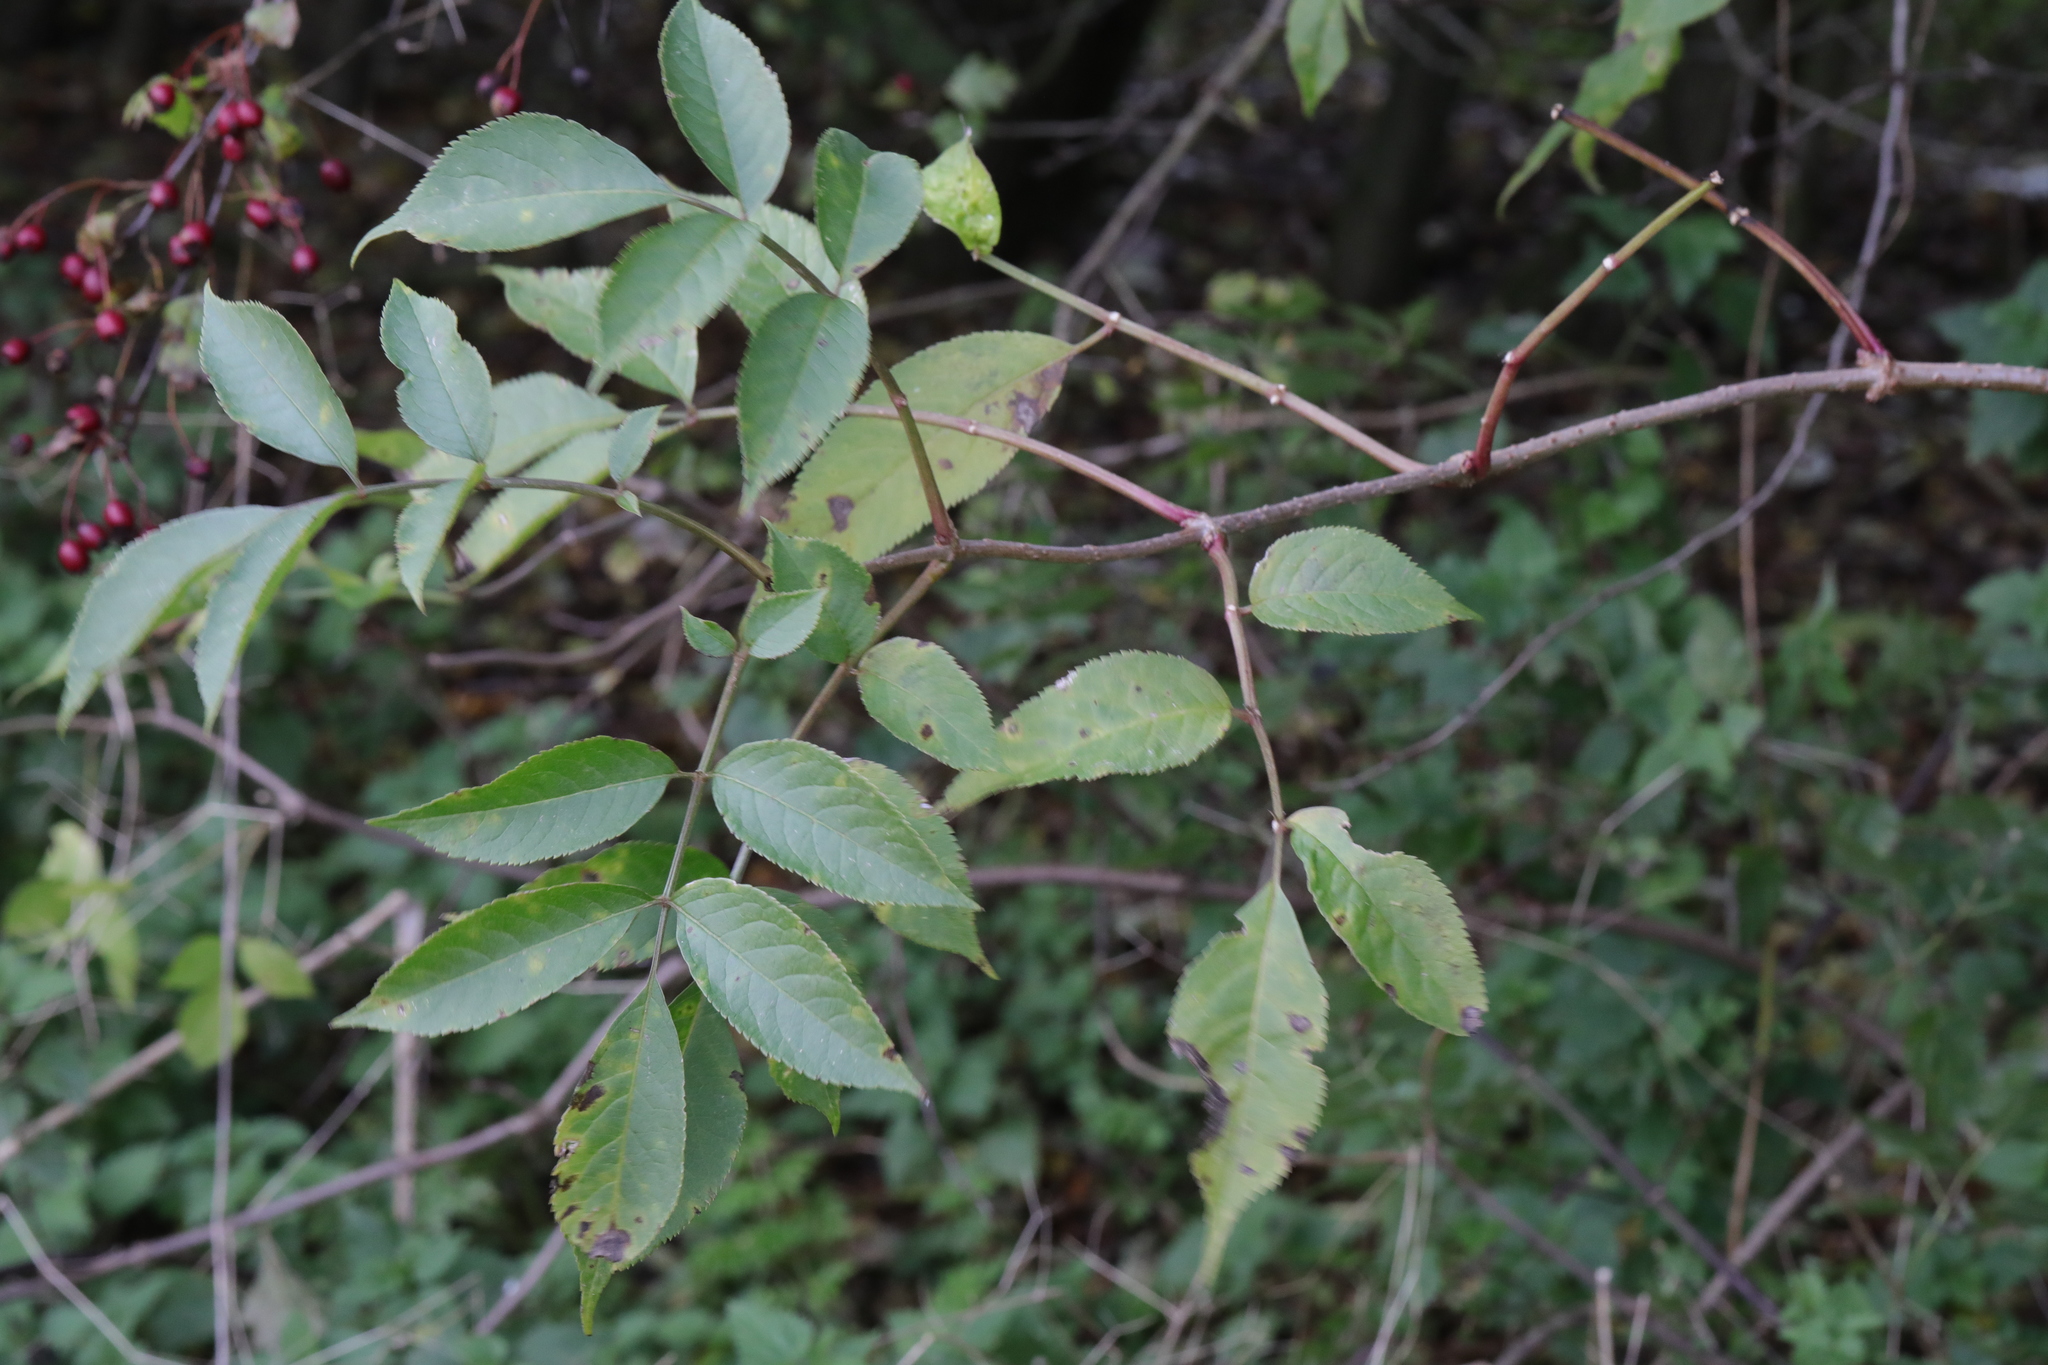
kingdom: Plantae
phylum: Tracheophyta
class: Magnoliopsida
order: Dipsacales
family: Viburnaceae
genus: Sambucus
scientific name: Sambucus nigra
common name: Elder
